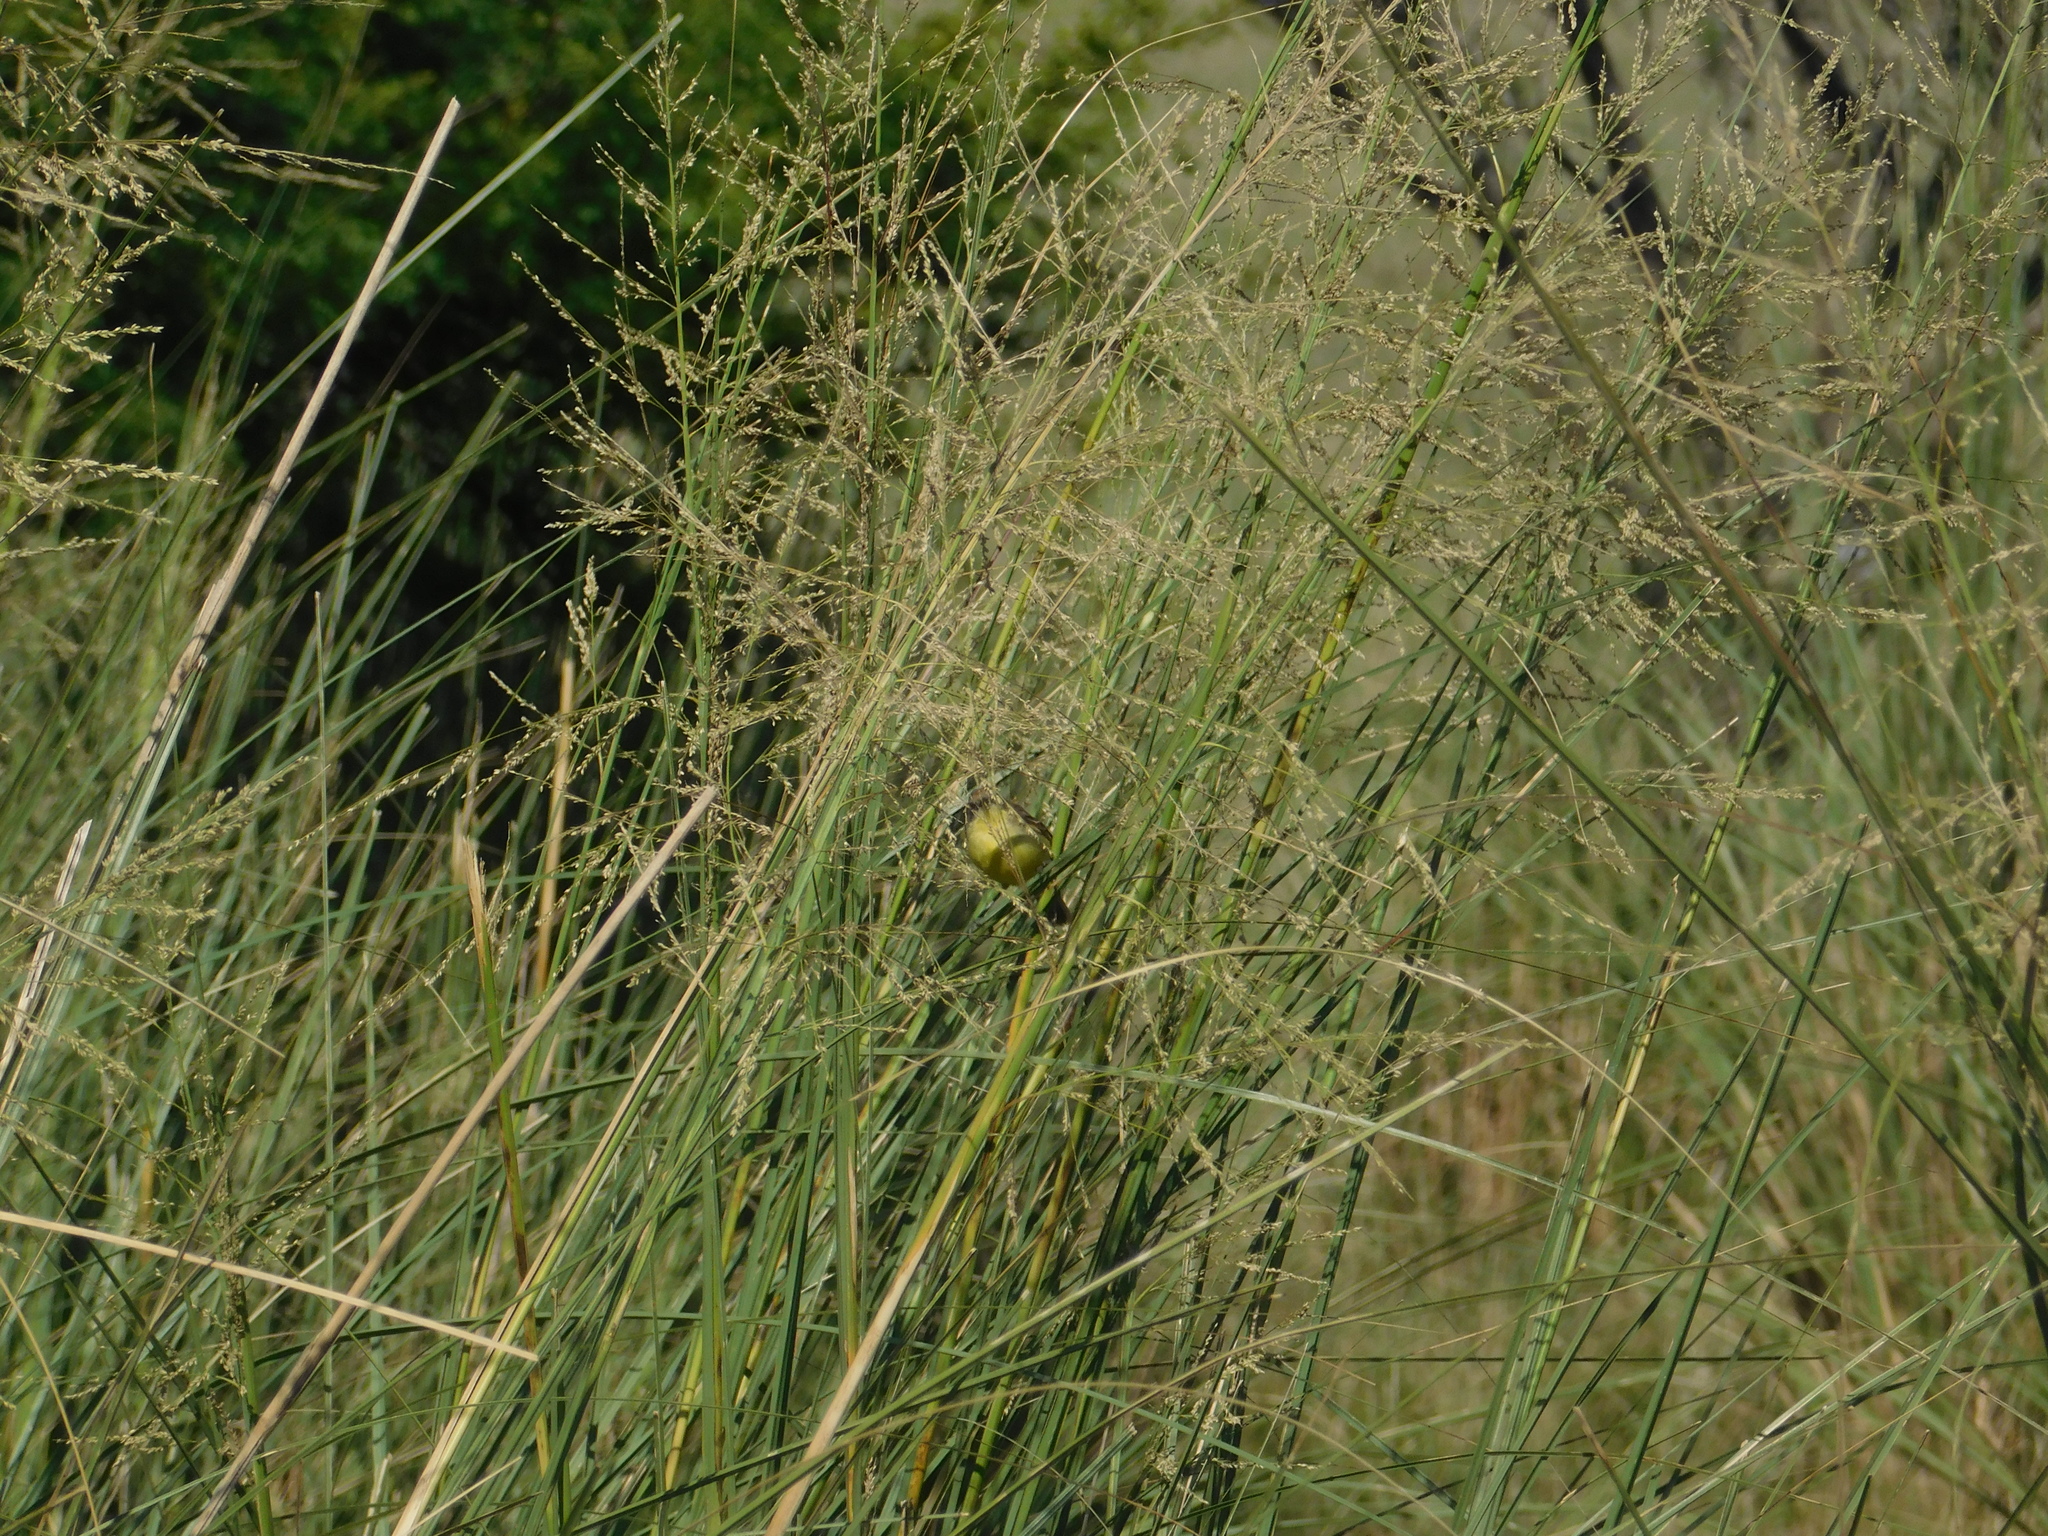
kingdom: Animalia
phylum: Chordata
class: Aves
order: Passeriformes
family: Tyrannidae
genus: Pseudocolopteryx
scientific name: Pseudocolopteryx flaviventris
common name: Warbling doradito
